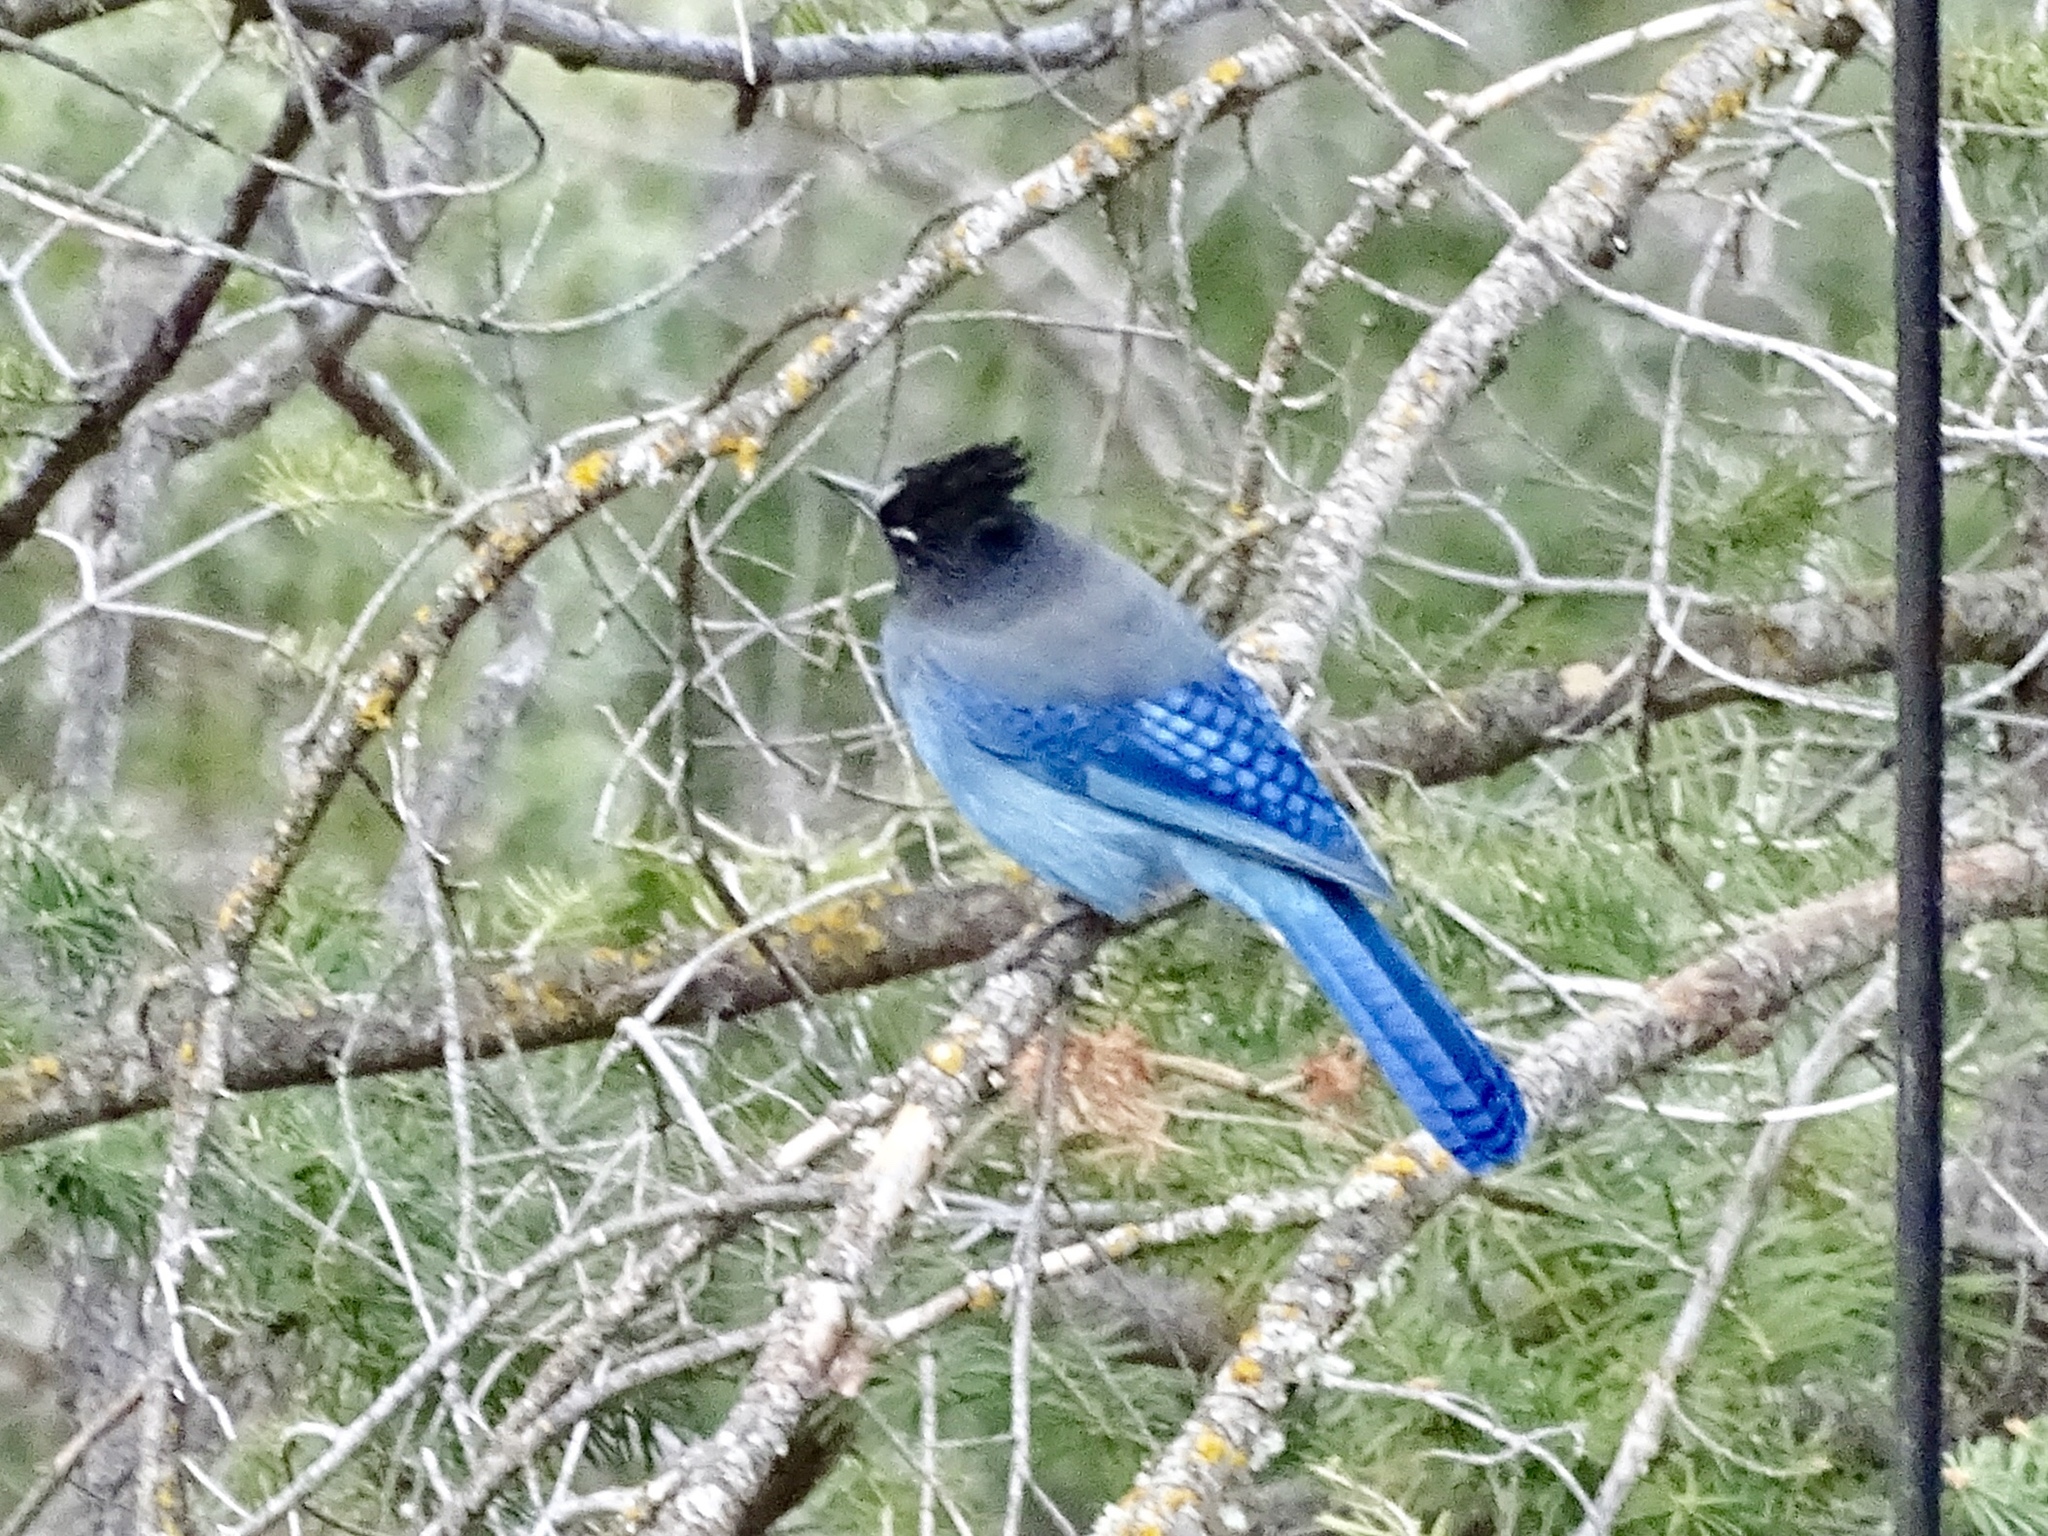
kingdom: Animalia
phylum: Chordata
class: Aves
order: Passeriformes
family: Corvidae
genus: Cyanocitta
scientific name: Cyanocitta stelleri
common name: Steller's jay
